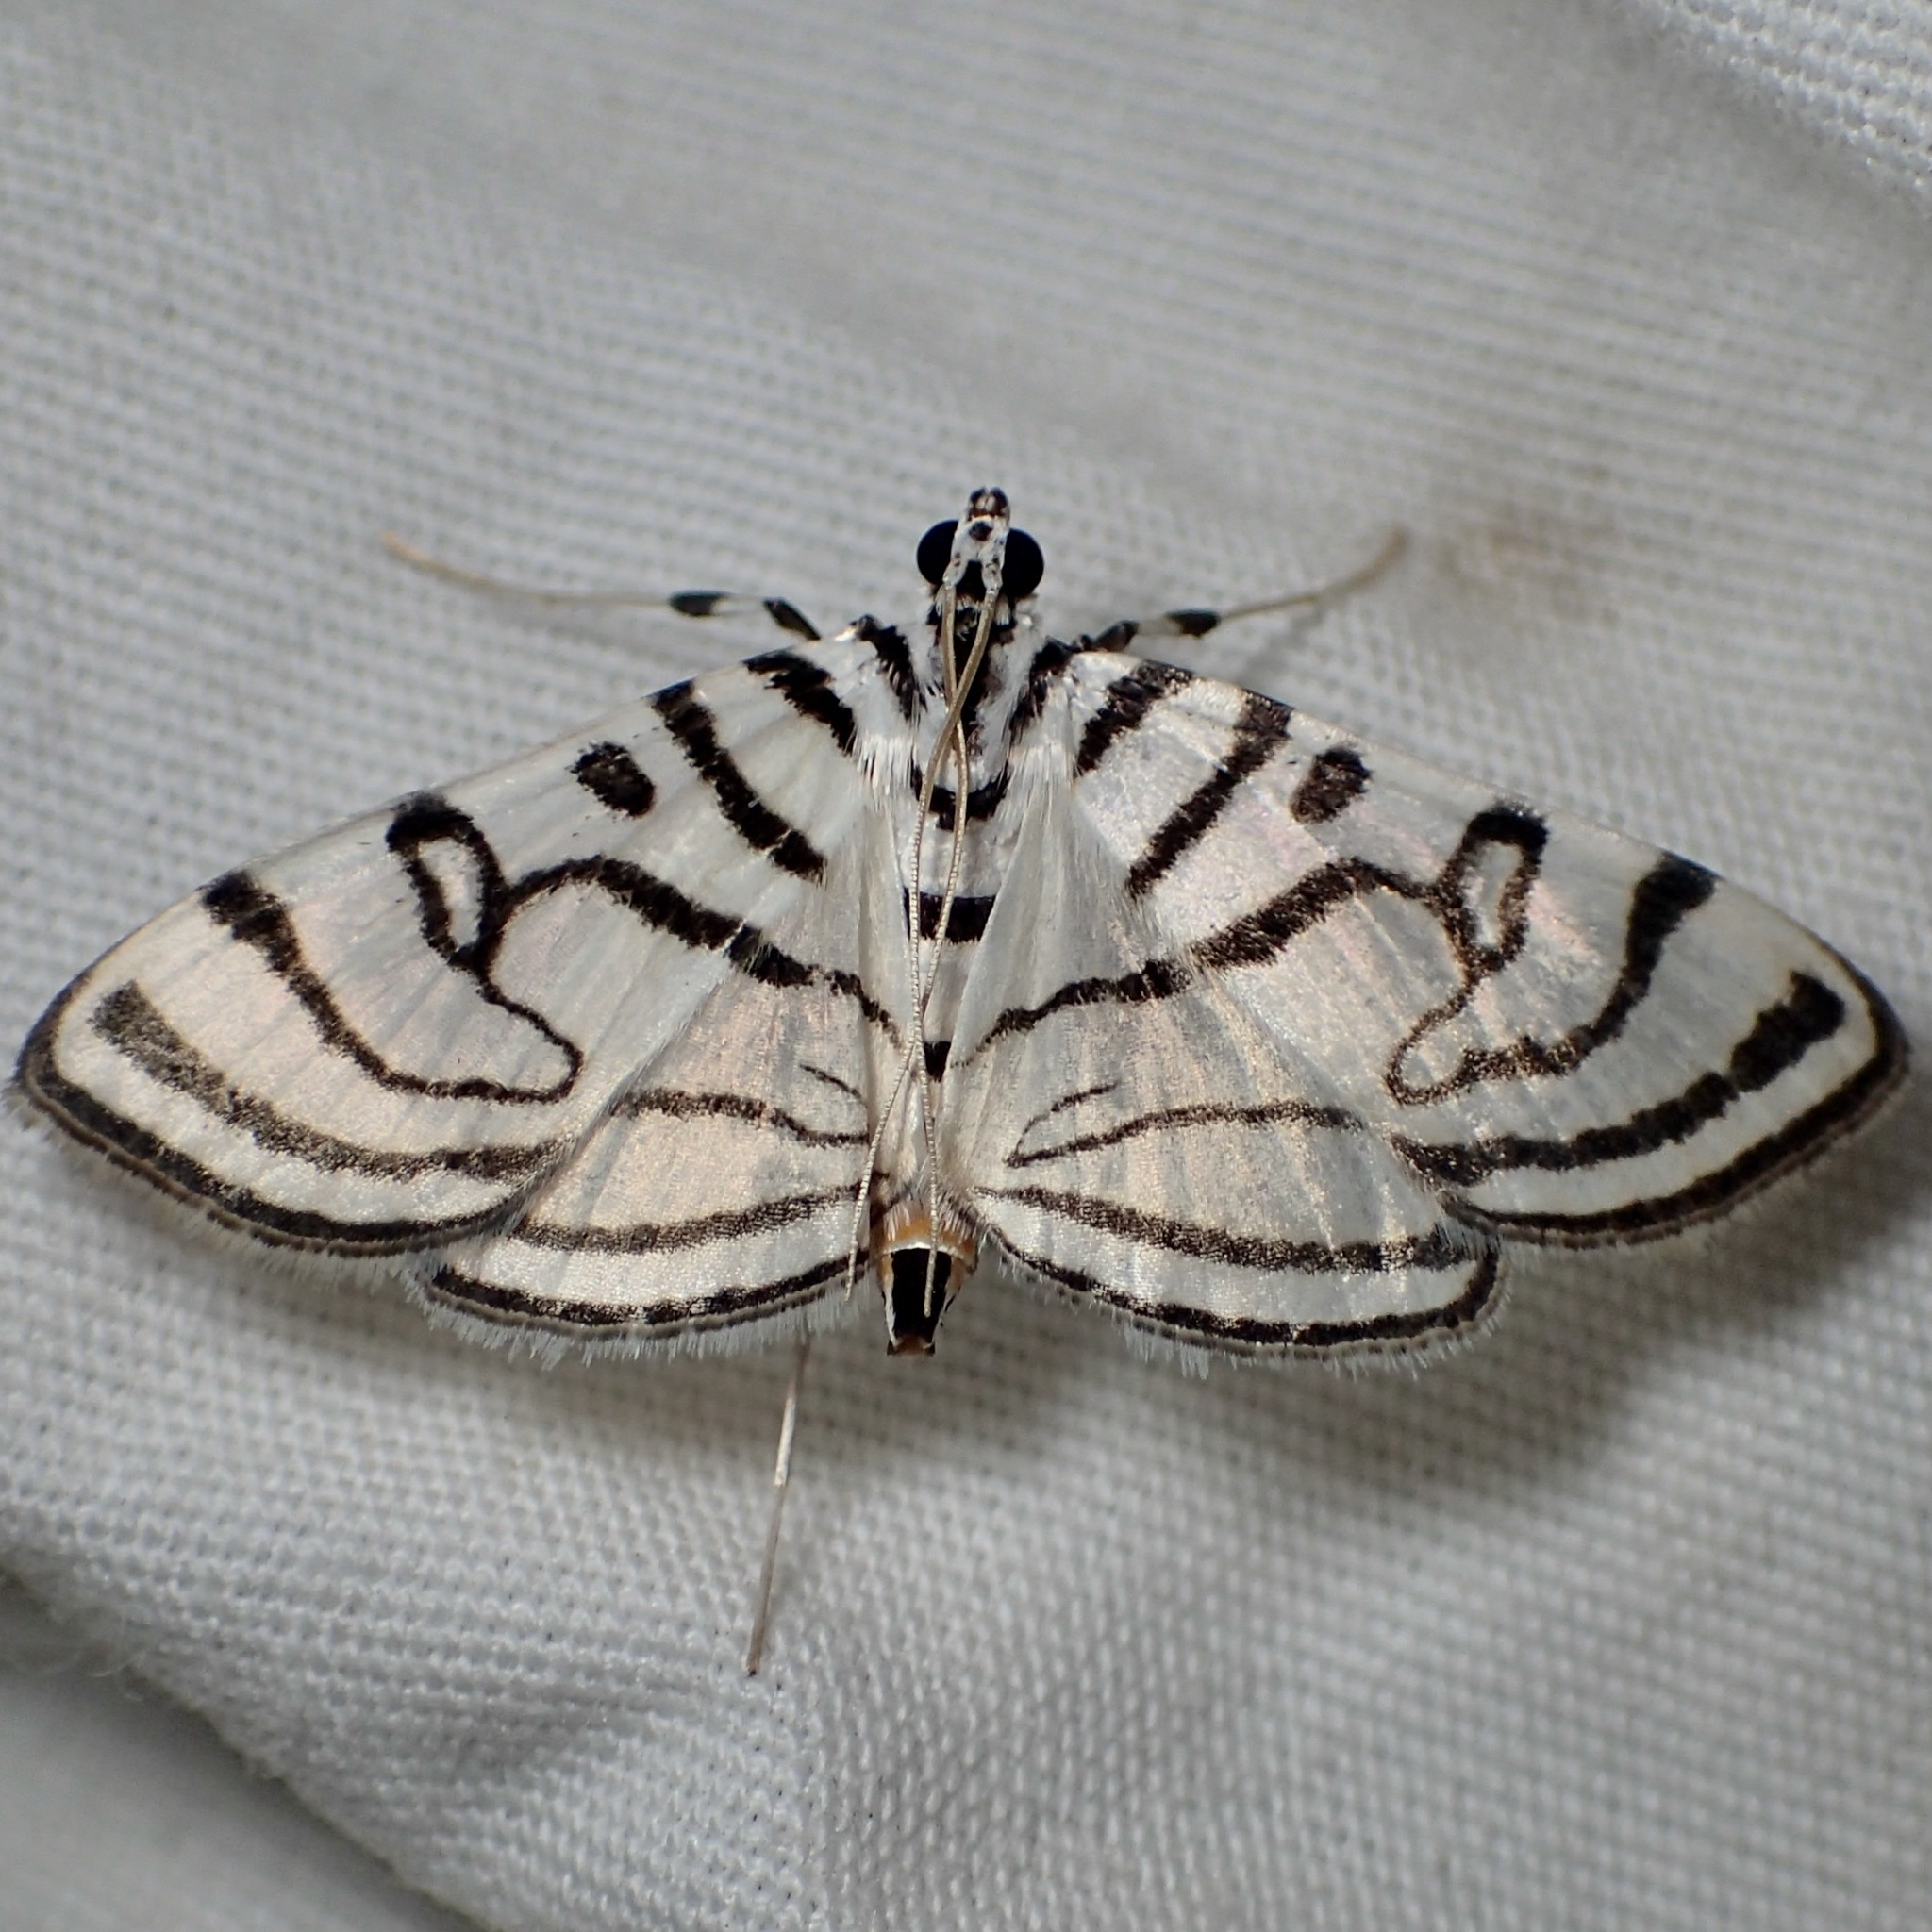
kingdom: Animalia
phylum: Arthropoda
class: Insecta
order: Lepidoptera
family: Crambidae
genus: Conchylodes
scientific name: Conchylodes ovulalis
